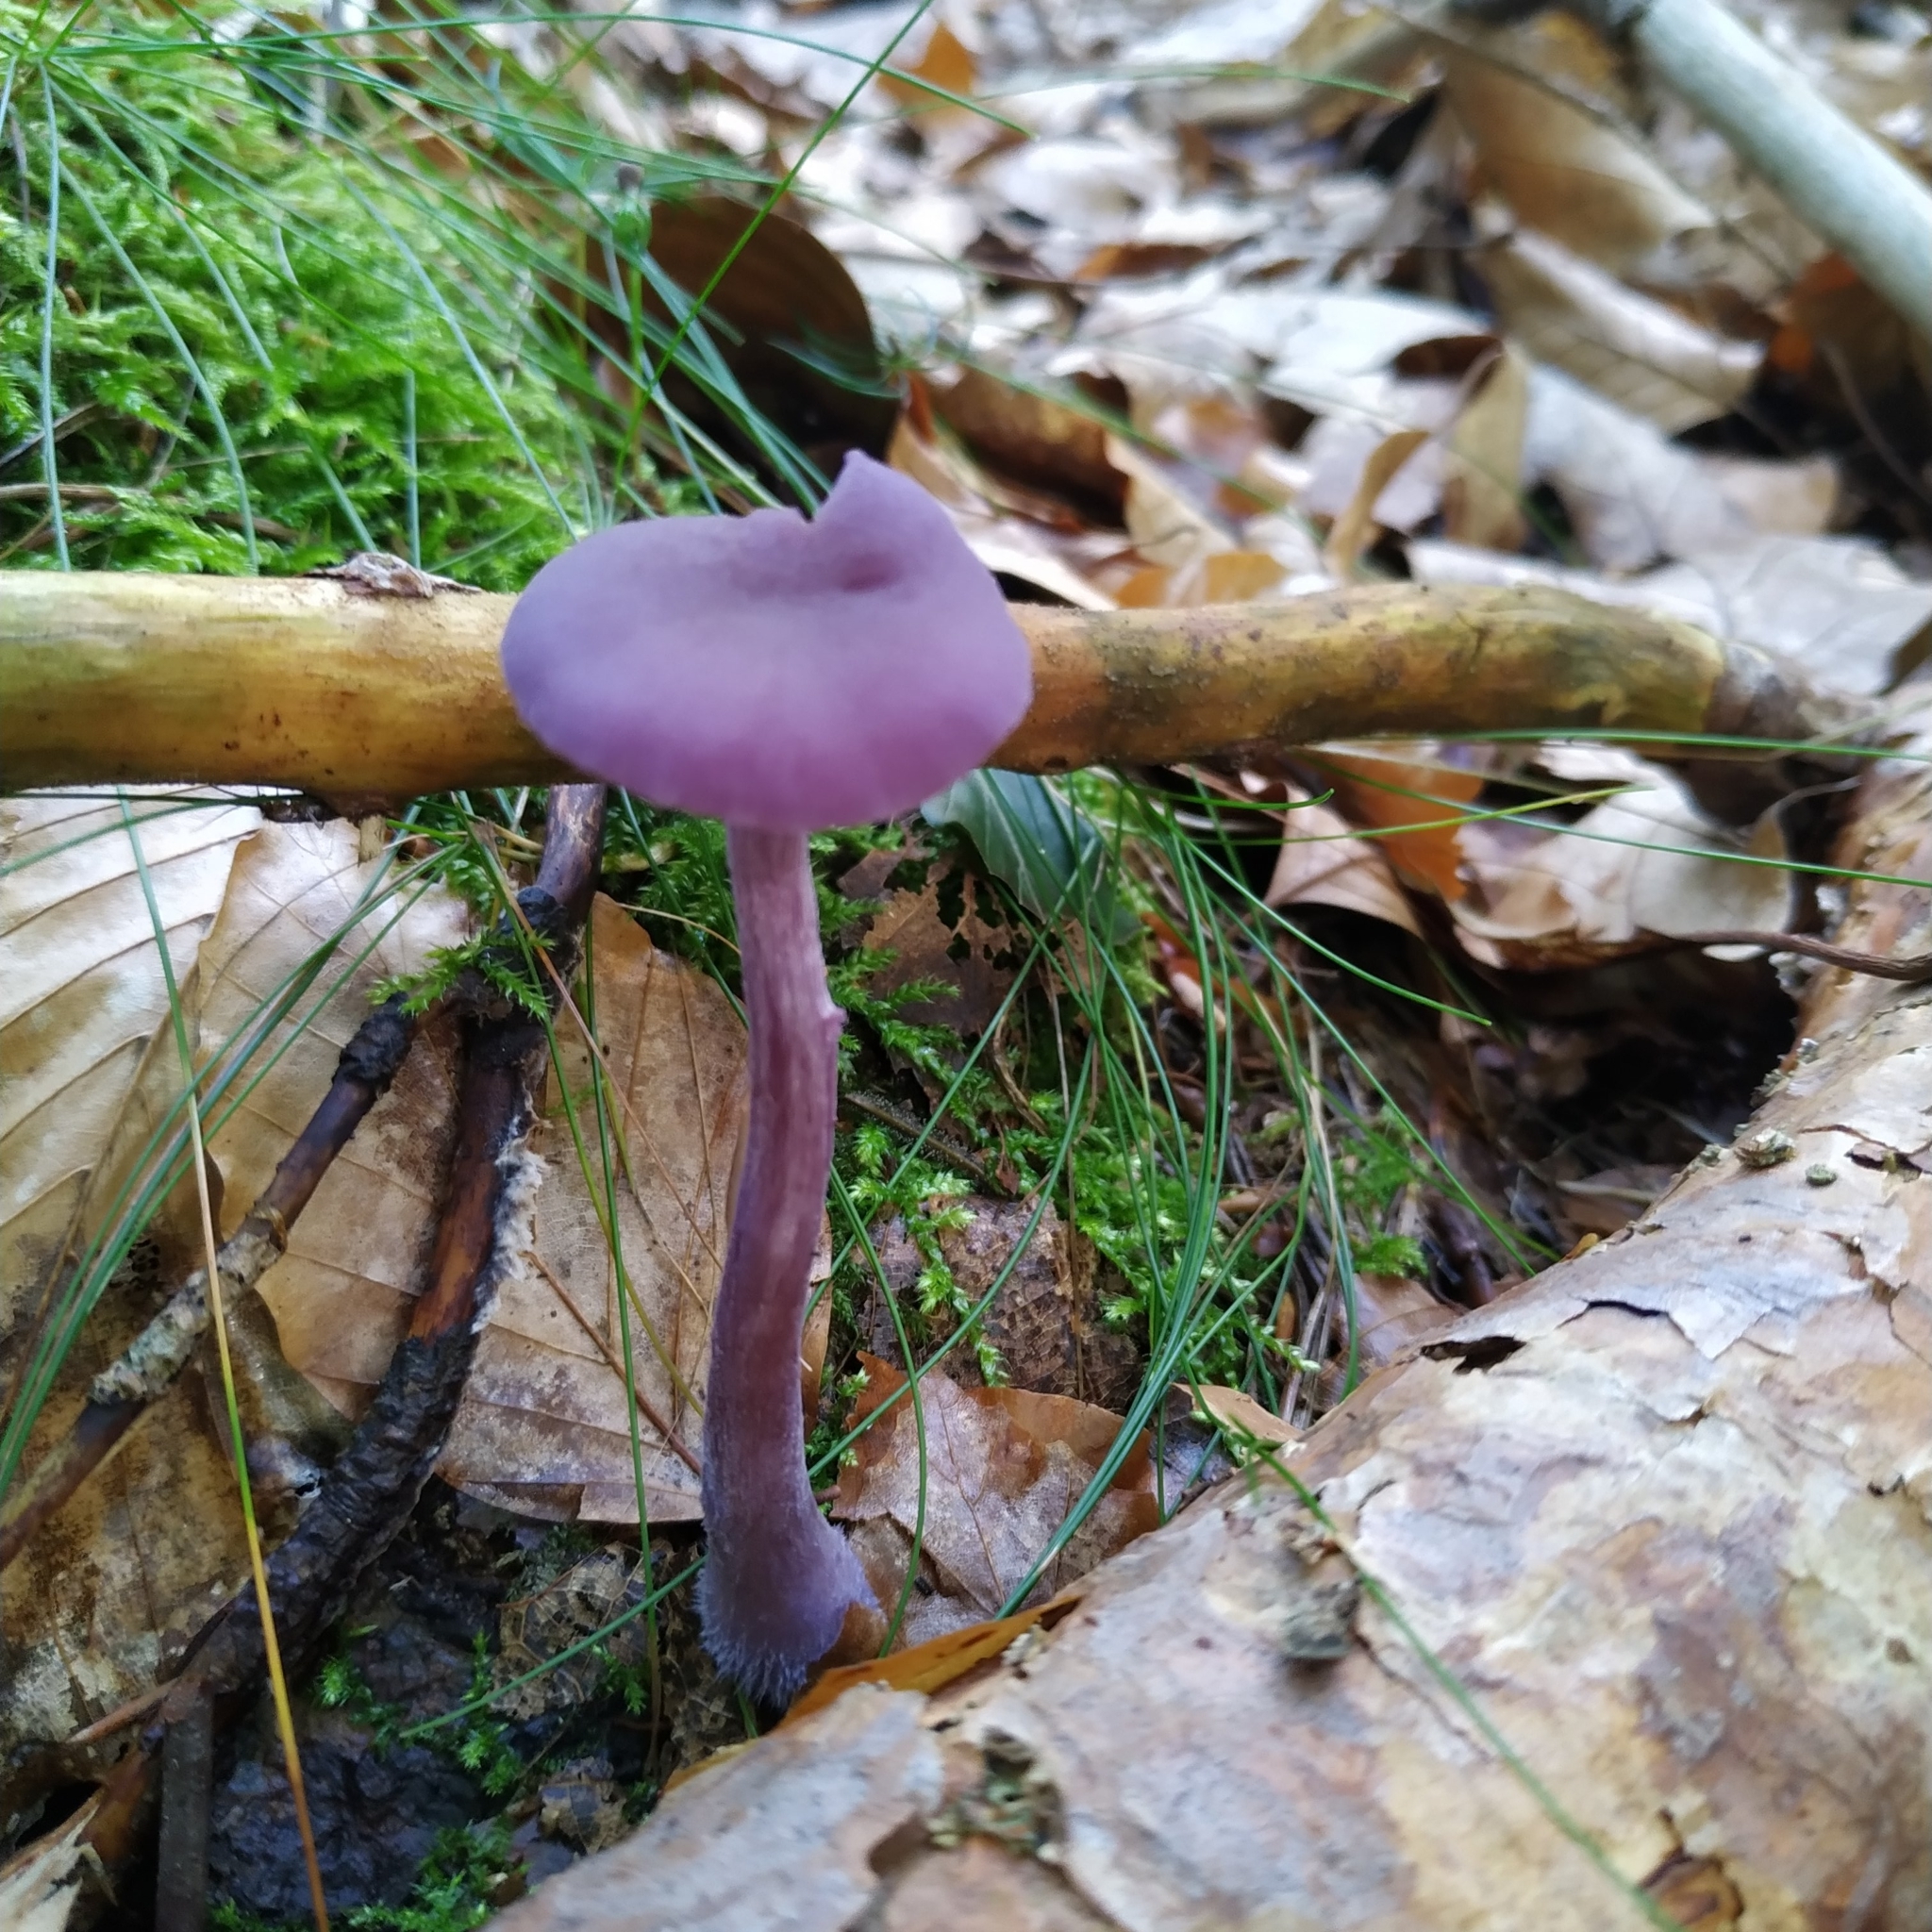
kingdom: Fungi
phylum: Basidiomycota
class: Agaricomycetes
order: Agaricales
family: Hydnangiaceae
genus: Laccaria
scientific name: Laccaria amethystina
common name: Amethyst deceiver
